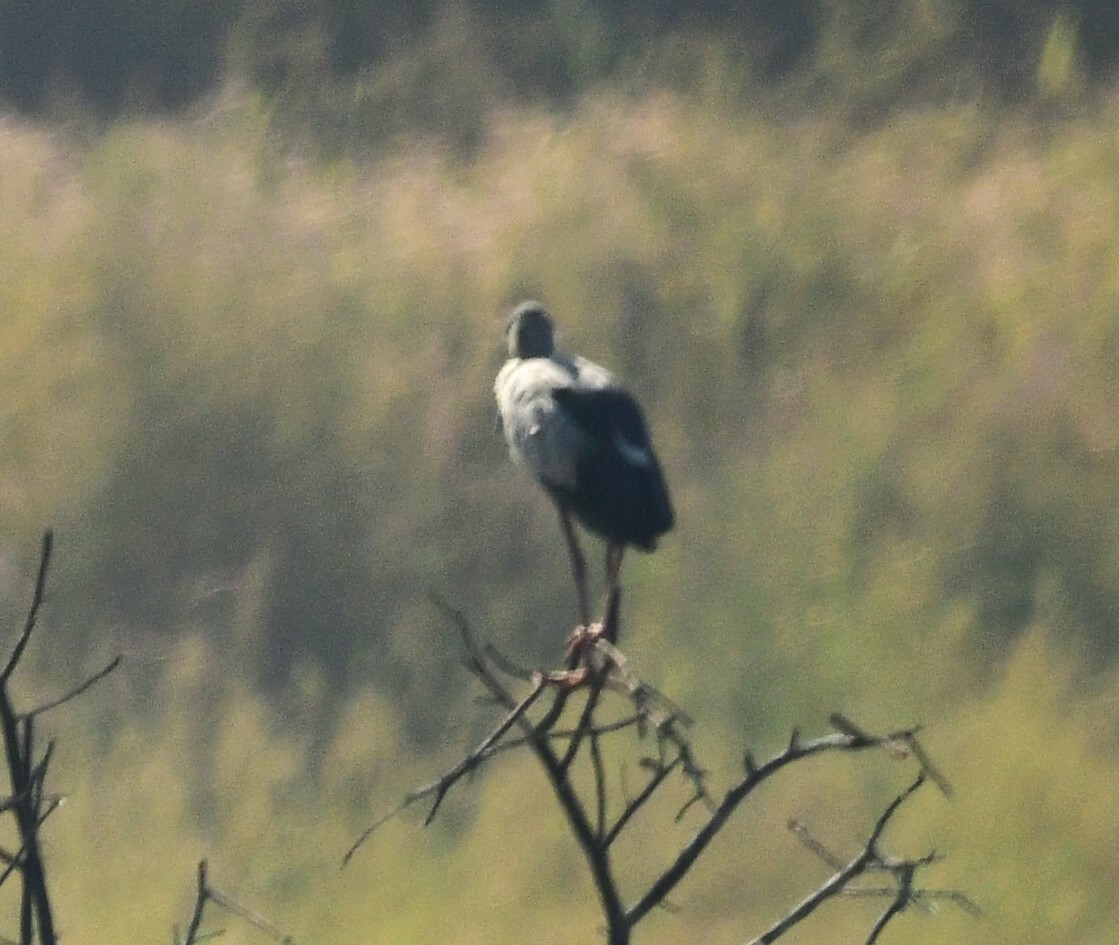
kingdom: Animalia
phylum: Chordata
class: Aves
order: Pelecaniformes
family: Ardeidae
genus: Ardea
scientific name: Ardea cinerea
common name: Grey heron
